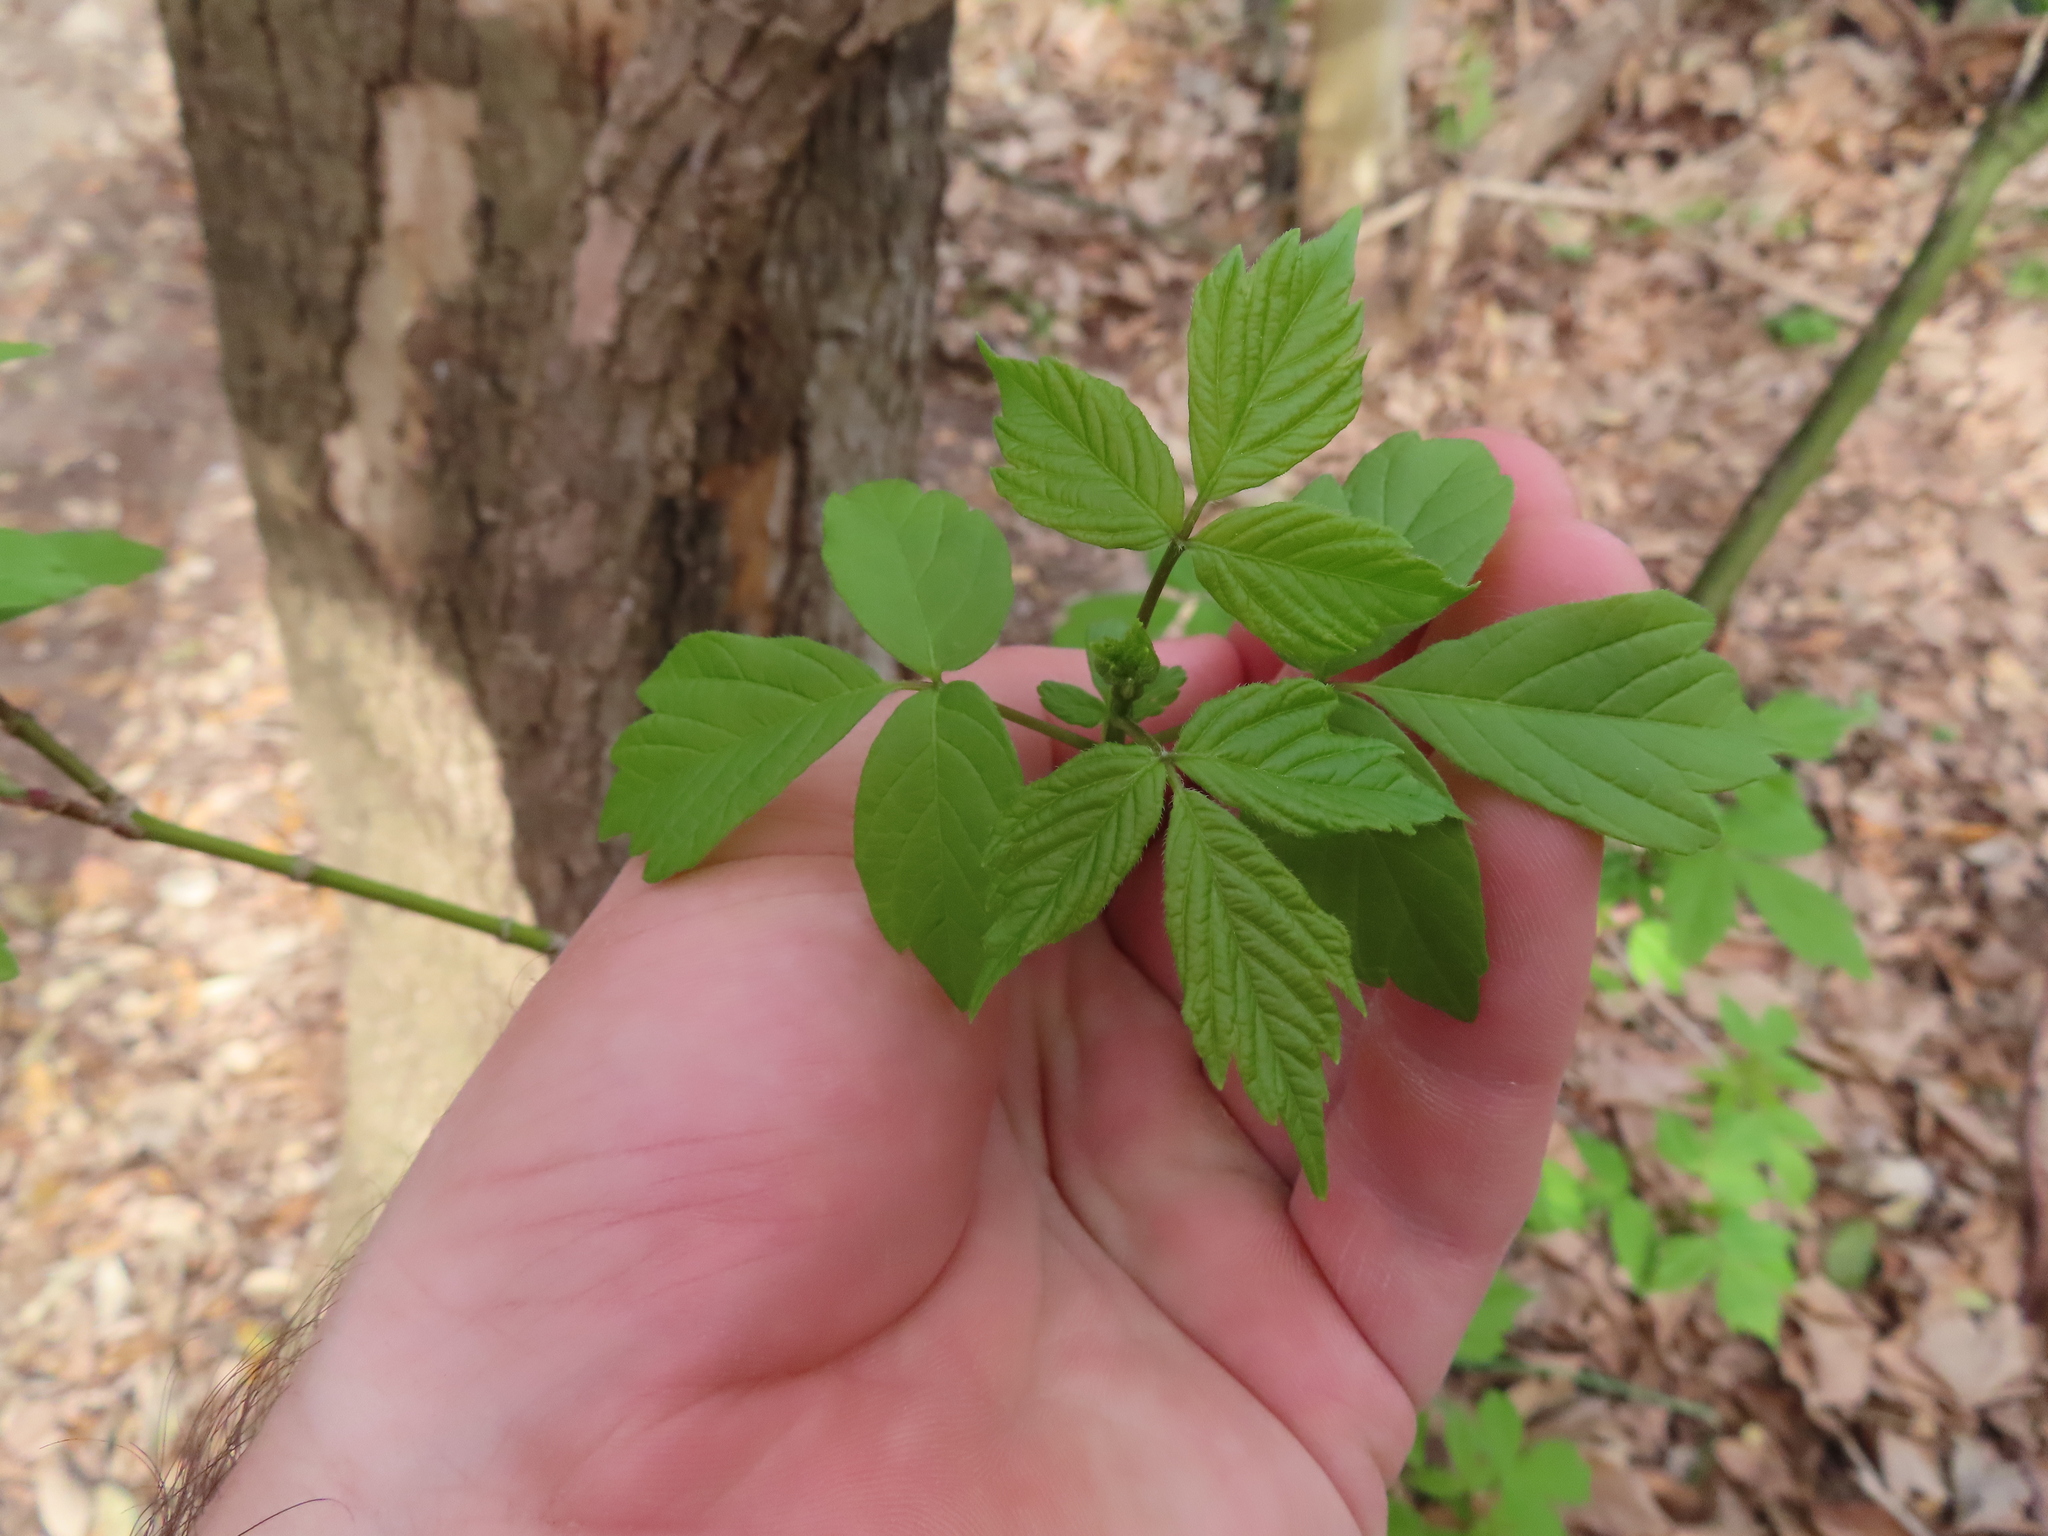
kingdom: Plantae
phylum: Tracheophyta
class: Magnoliopsida
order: Sapindales
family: Sapindaceae
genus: Acer
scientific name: Acer negundo
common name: Ashleaf maple
